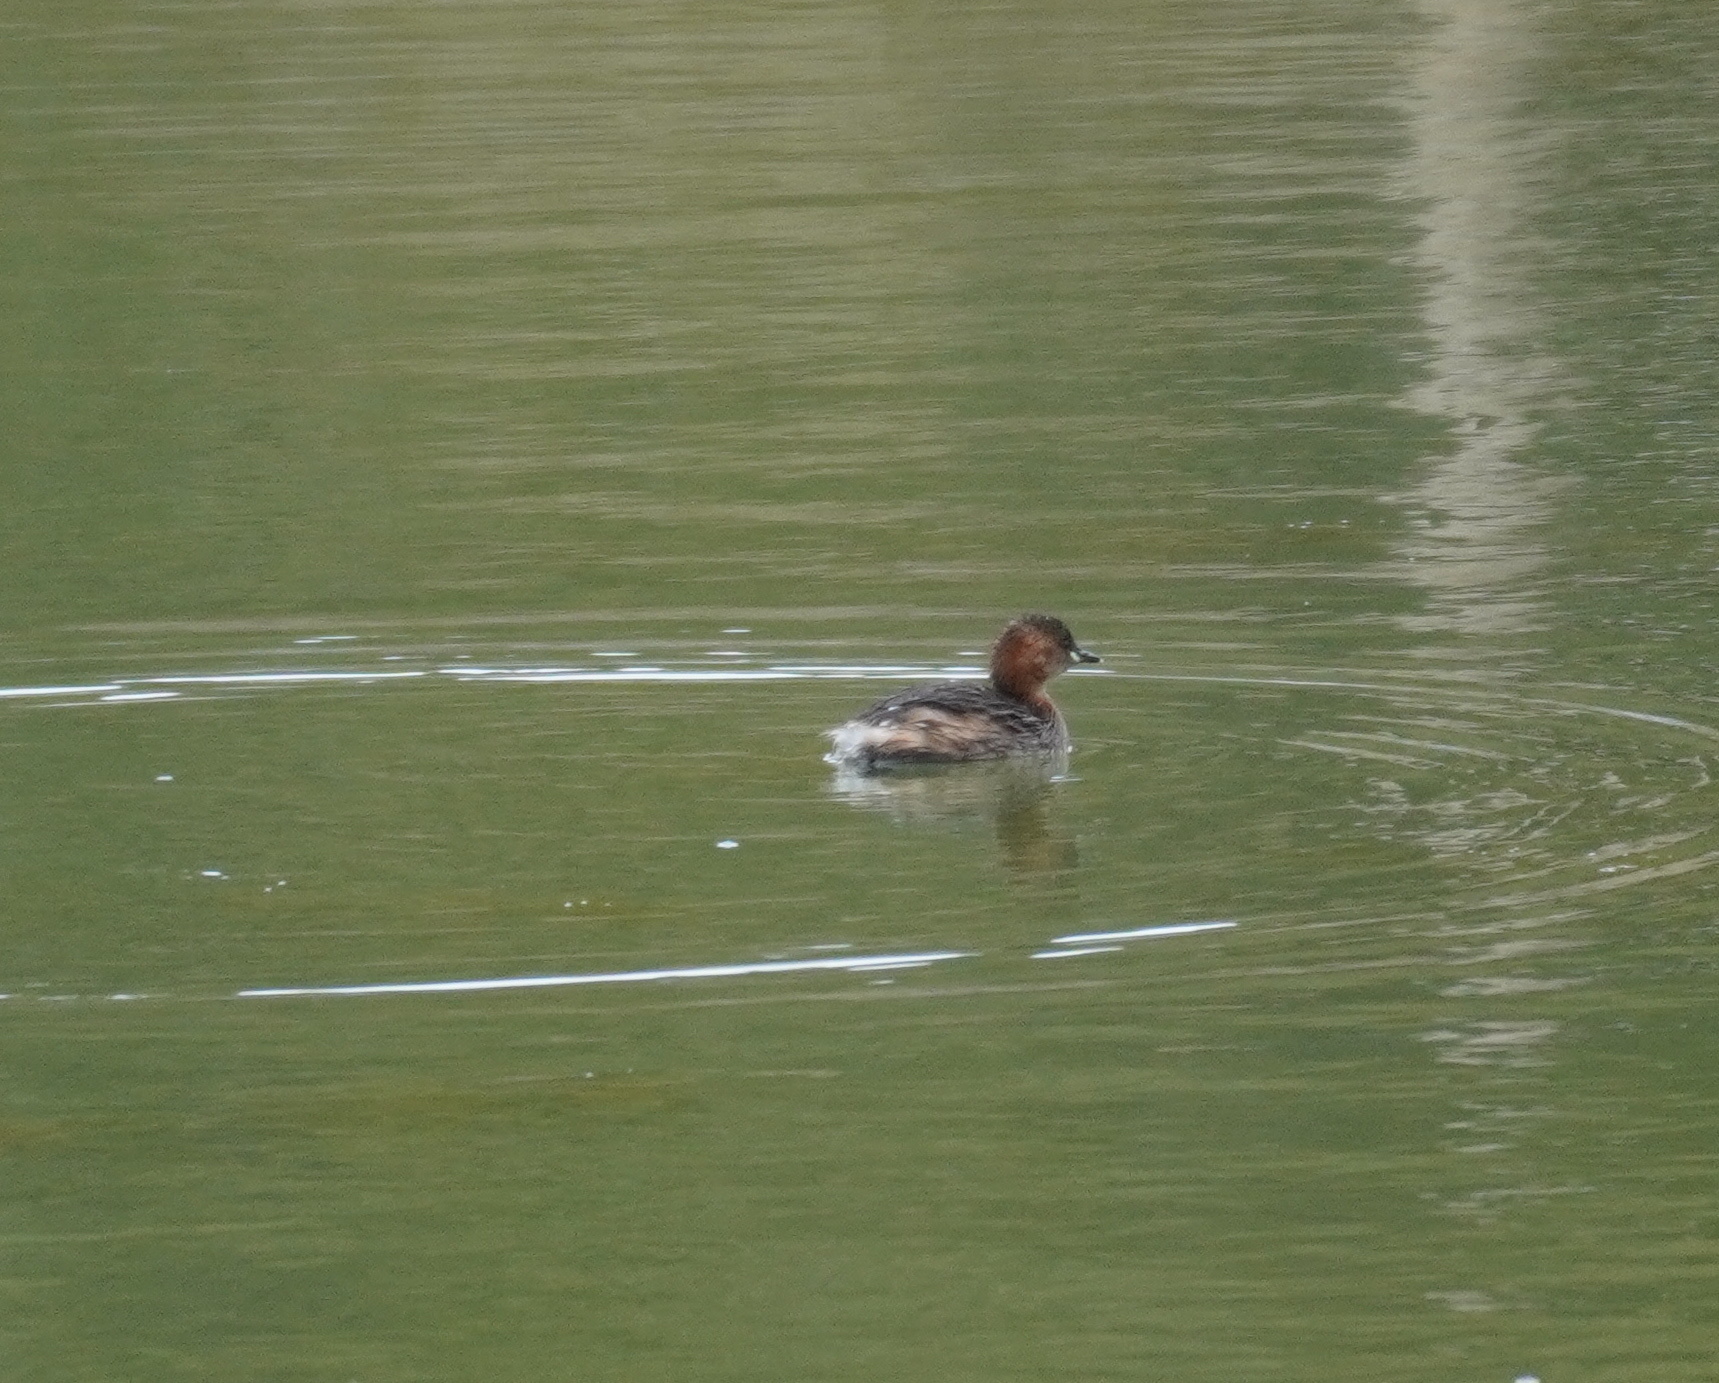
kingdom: Animalia
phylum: Chordata
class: Aves
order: Podicipediformes
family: Podicipedidae
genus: Tachybaptus
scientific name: Tachybaptus ruficollis
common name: Little grebe
